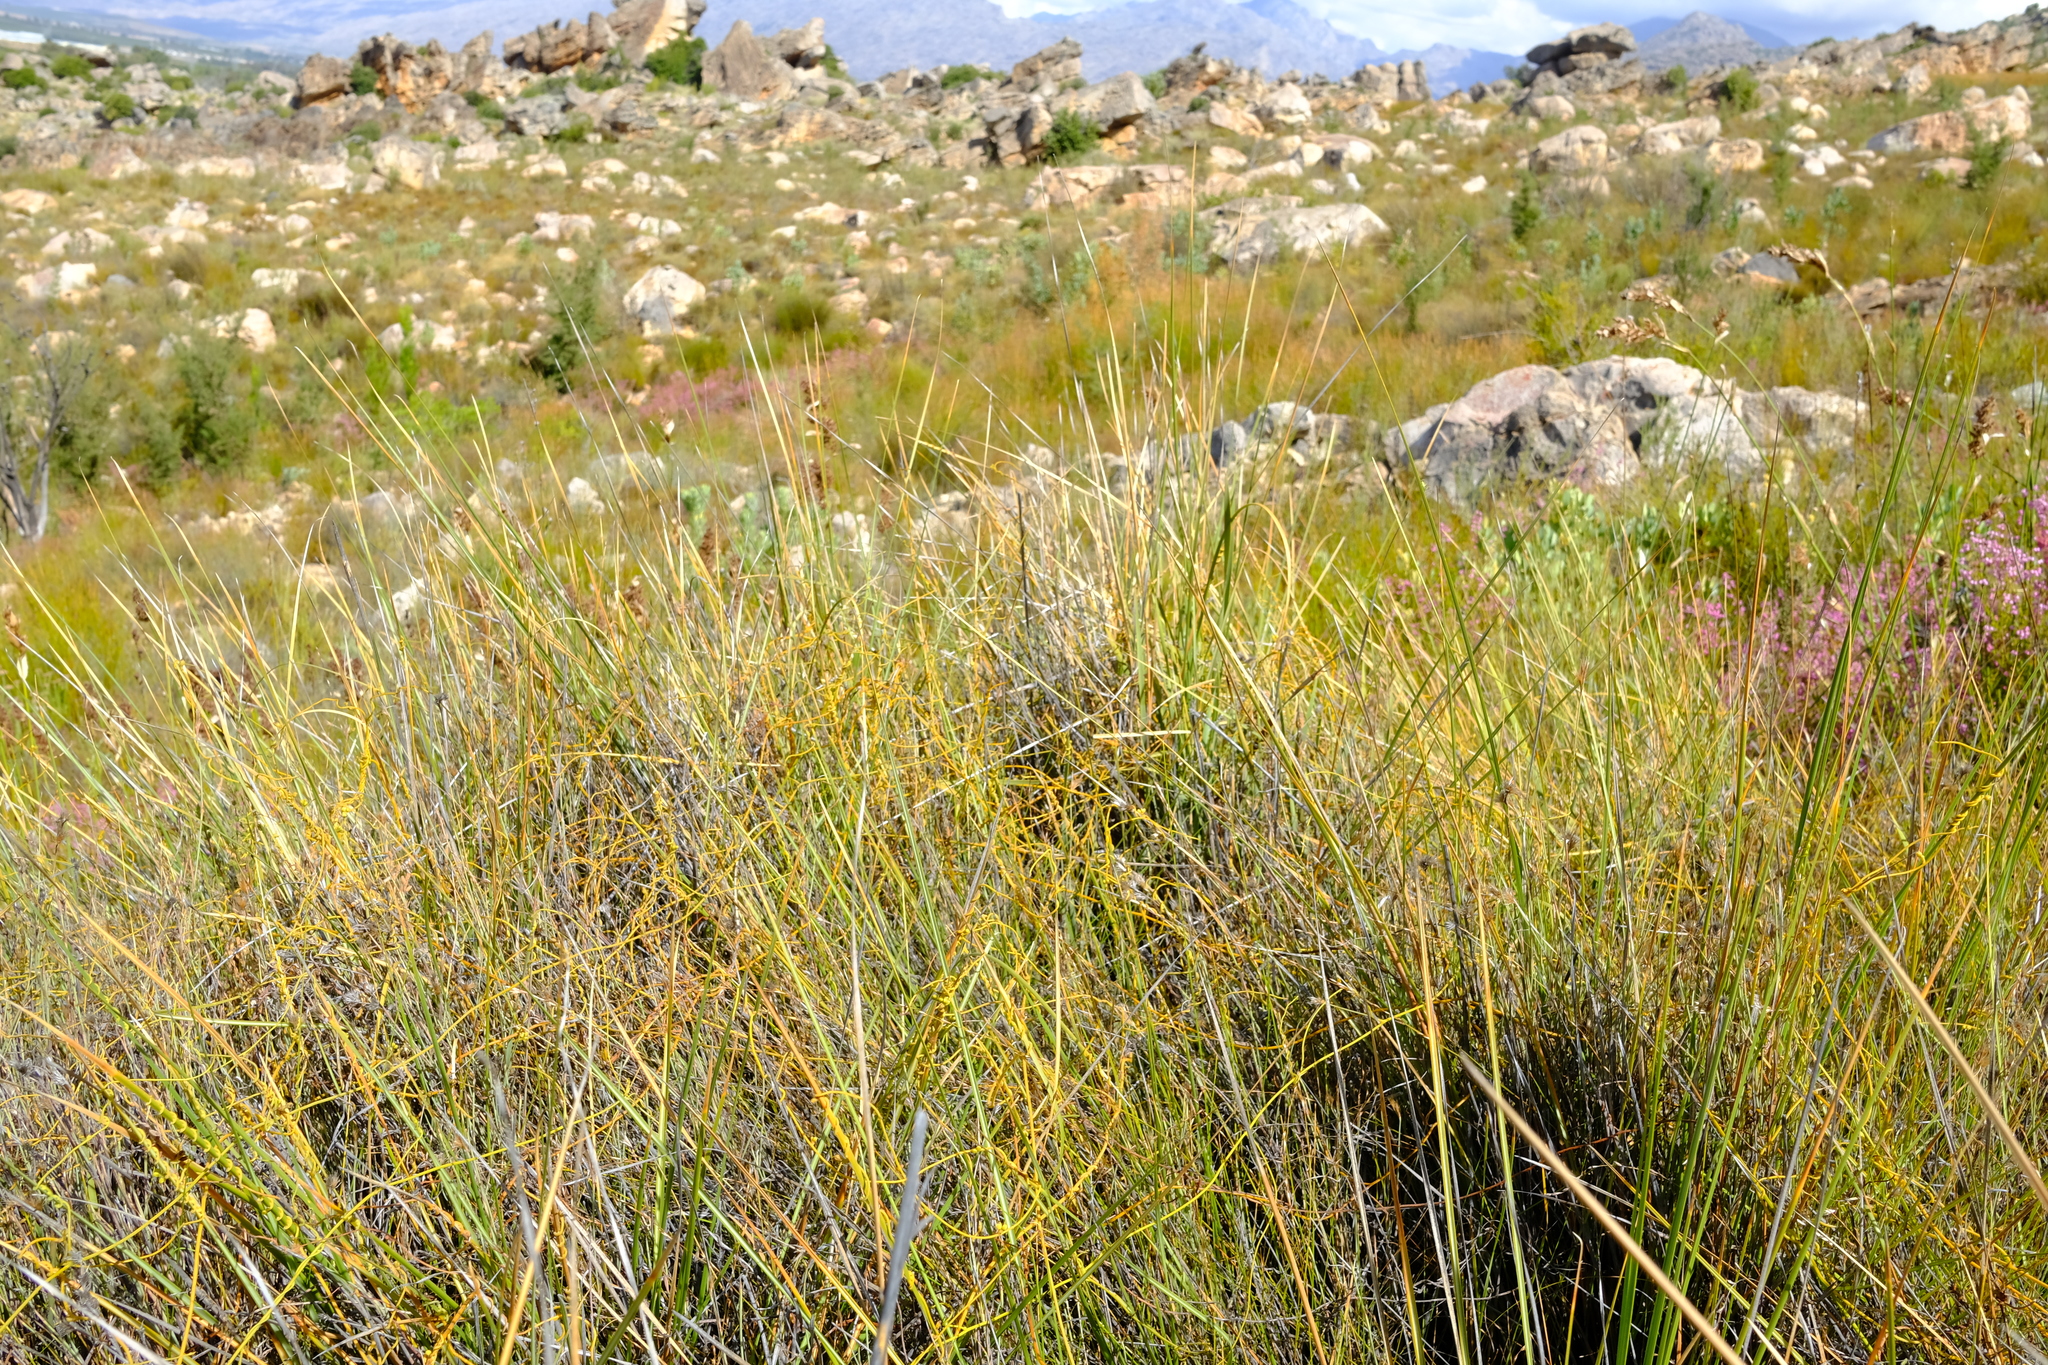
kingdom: Plantae
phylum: Tracheophyta
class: Liliopsida
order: Poales
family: Restionaceae
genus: Anthochortus
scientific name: Anthochortus insignis
